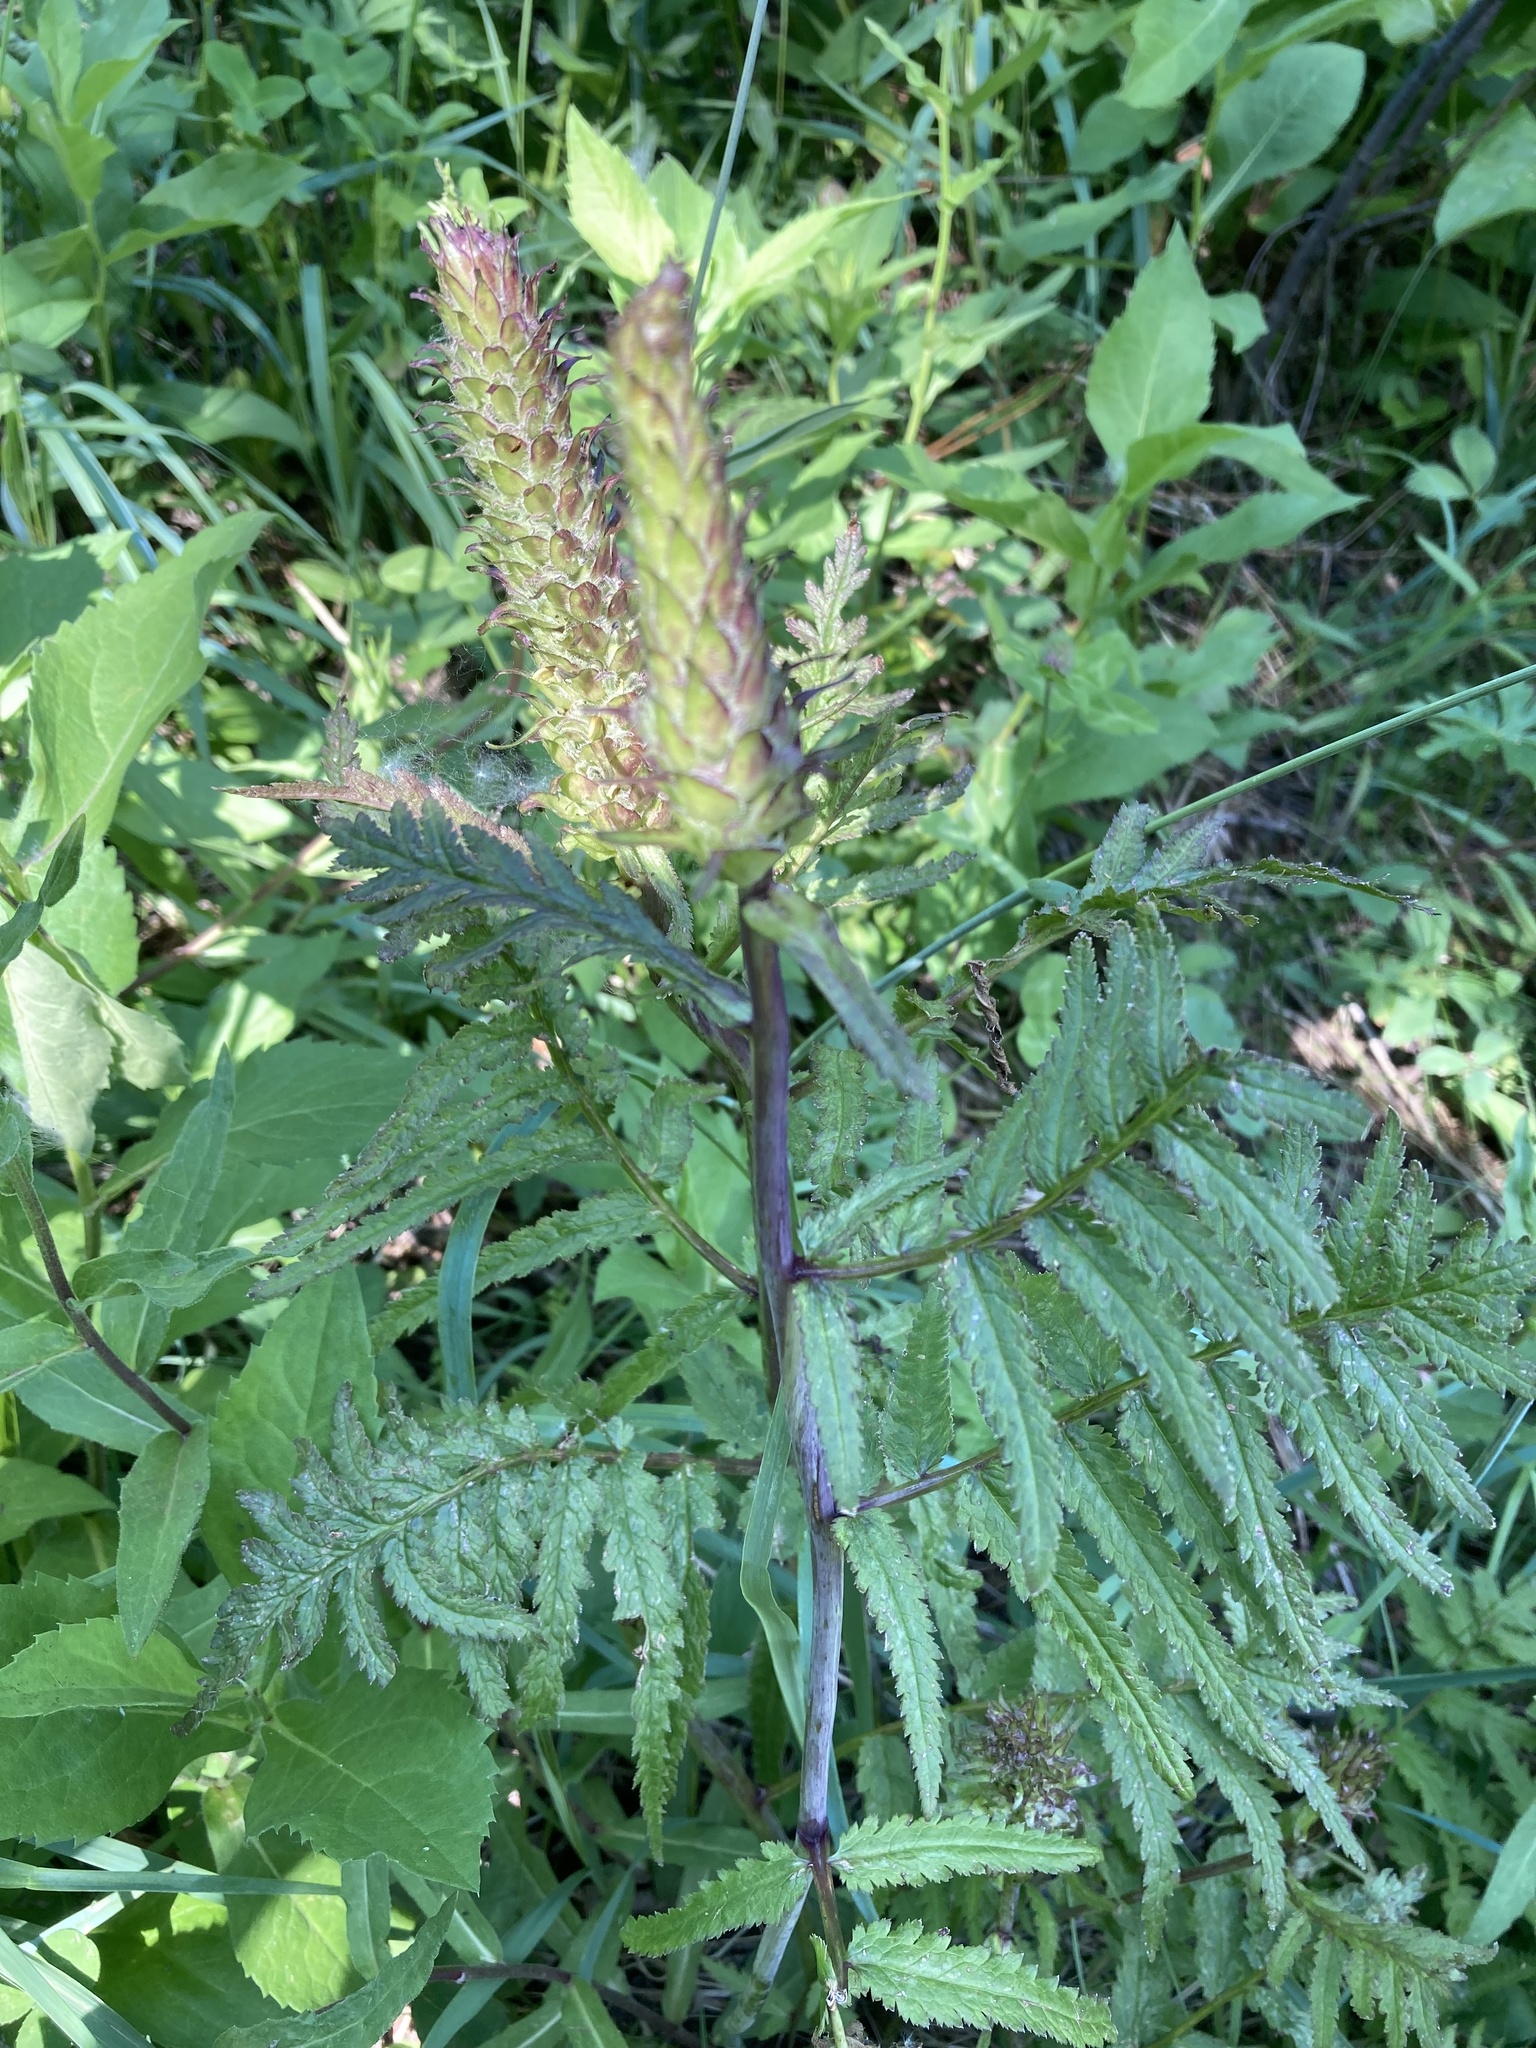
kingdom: Plantae
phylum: Tracheophyta
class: Magnoliopsida
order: Lamiales
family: Orobanchaceae
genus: Pedicularis
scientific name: Pedicularis bracteosa
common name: Bracted lousewort
